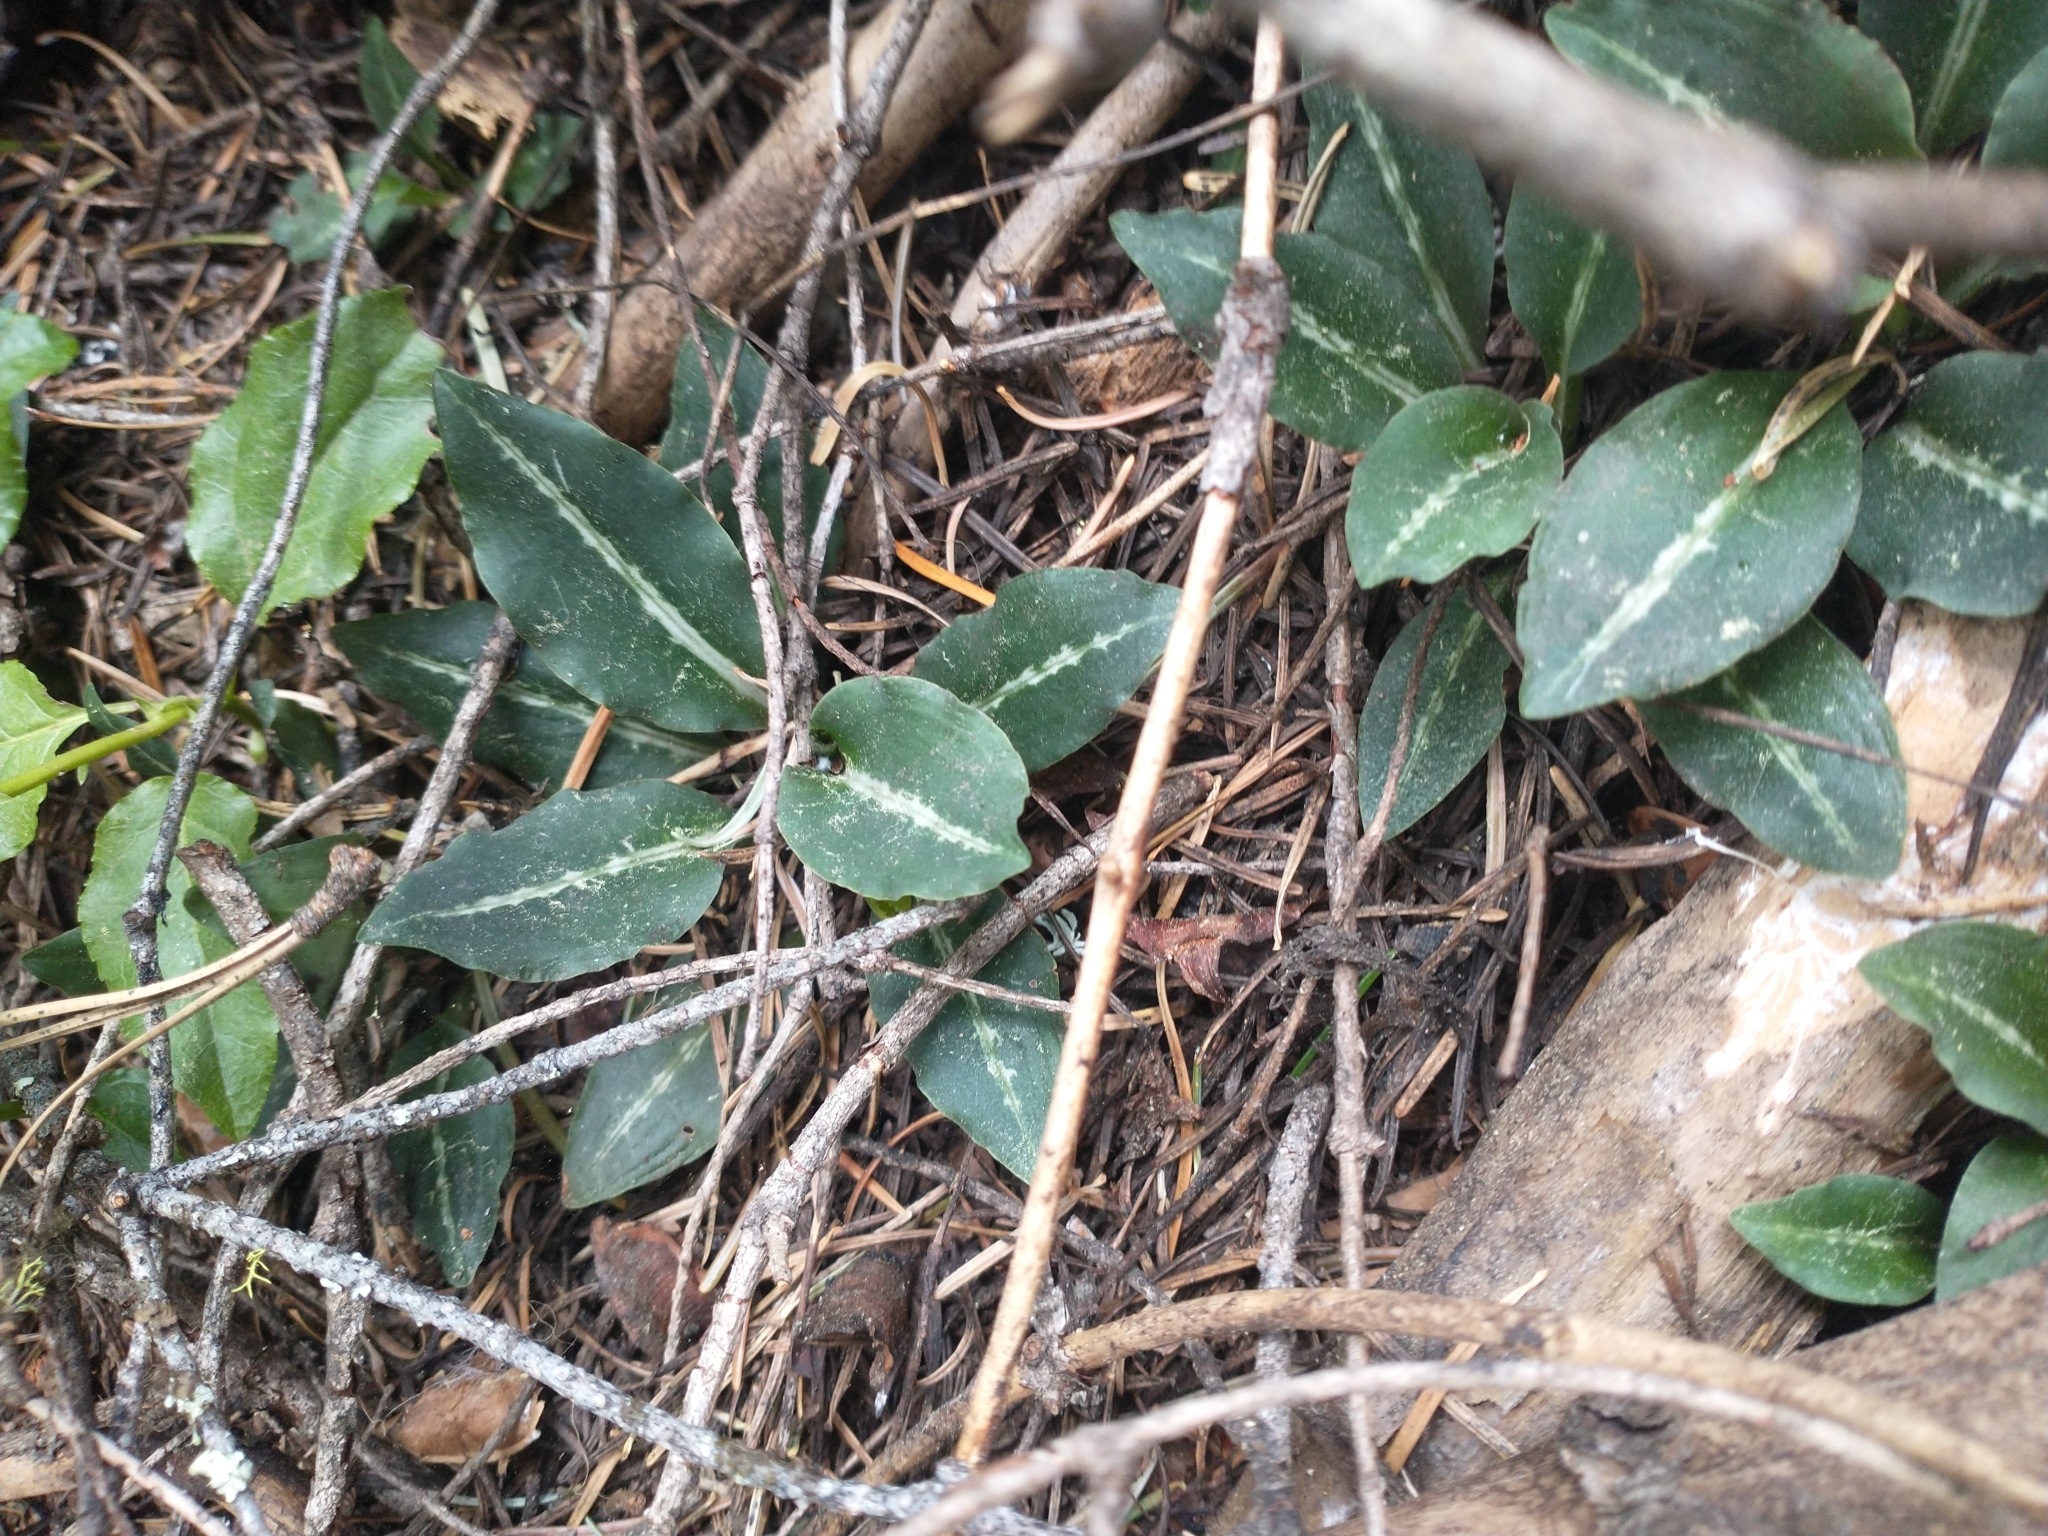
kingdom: Plantae
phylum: Tracheophyta
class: Liliopsida
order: Asparagales
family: Orchidaceae
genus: Goodyera
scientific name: Goodyera oblongifolia
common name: Giant rattlesnake-plantain
